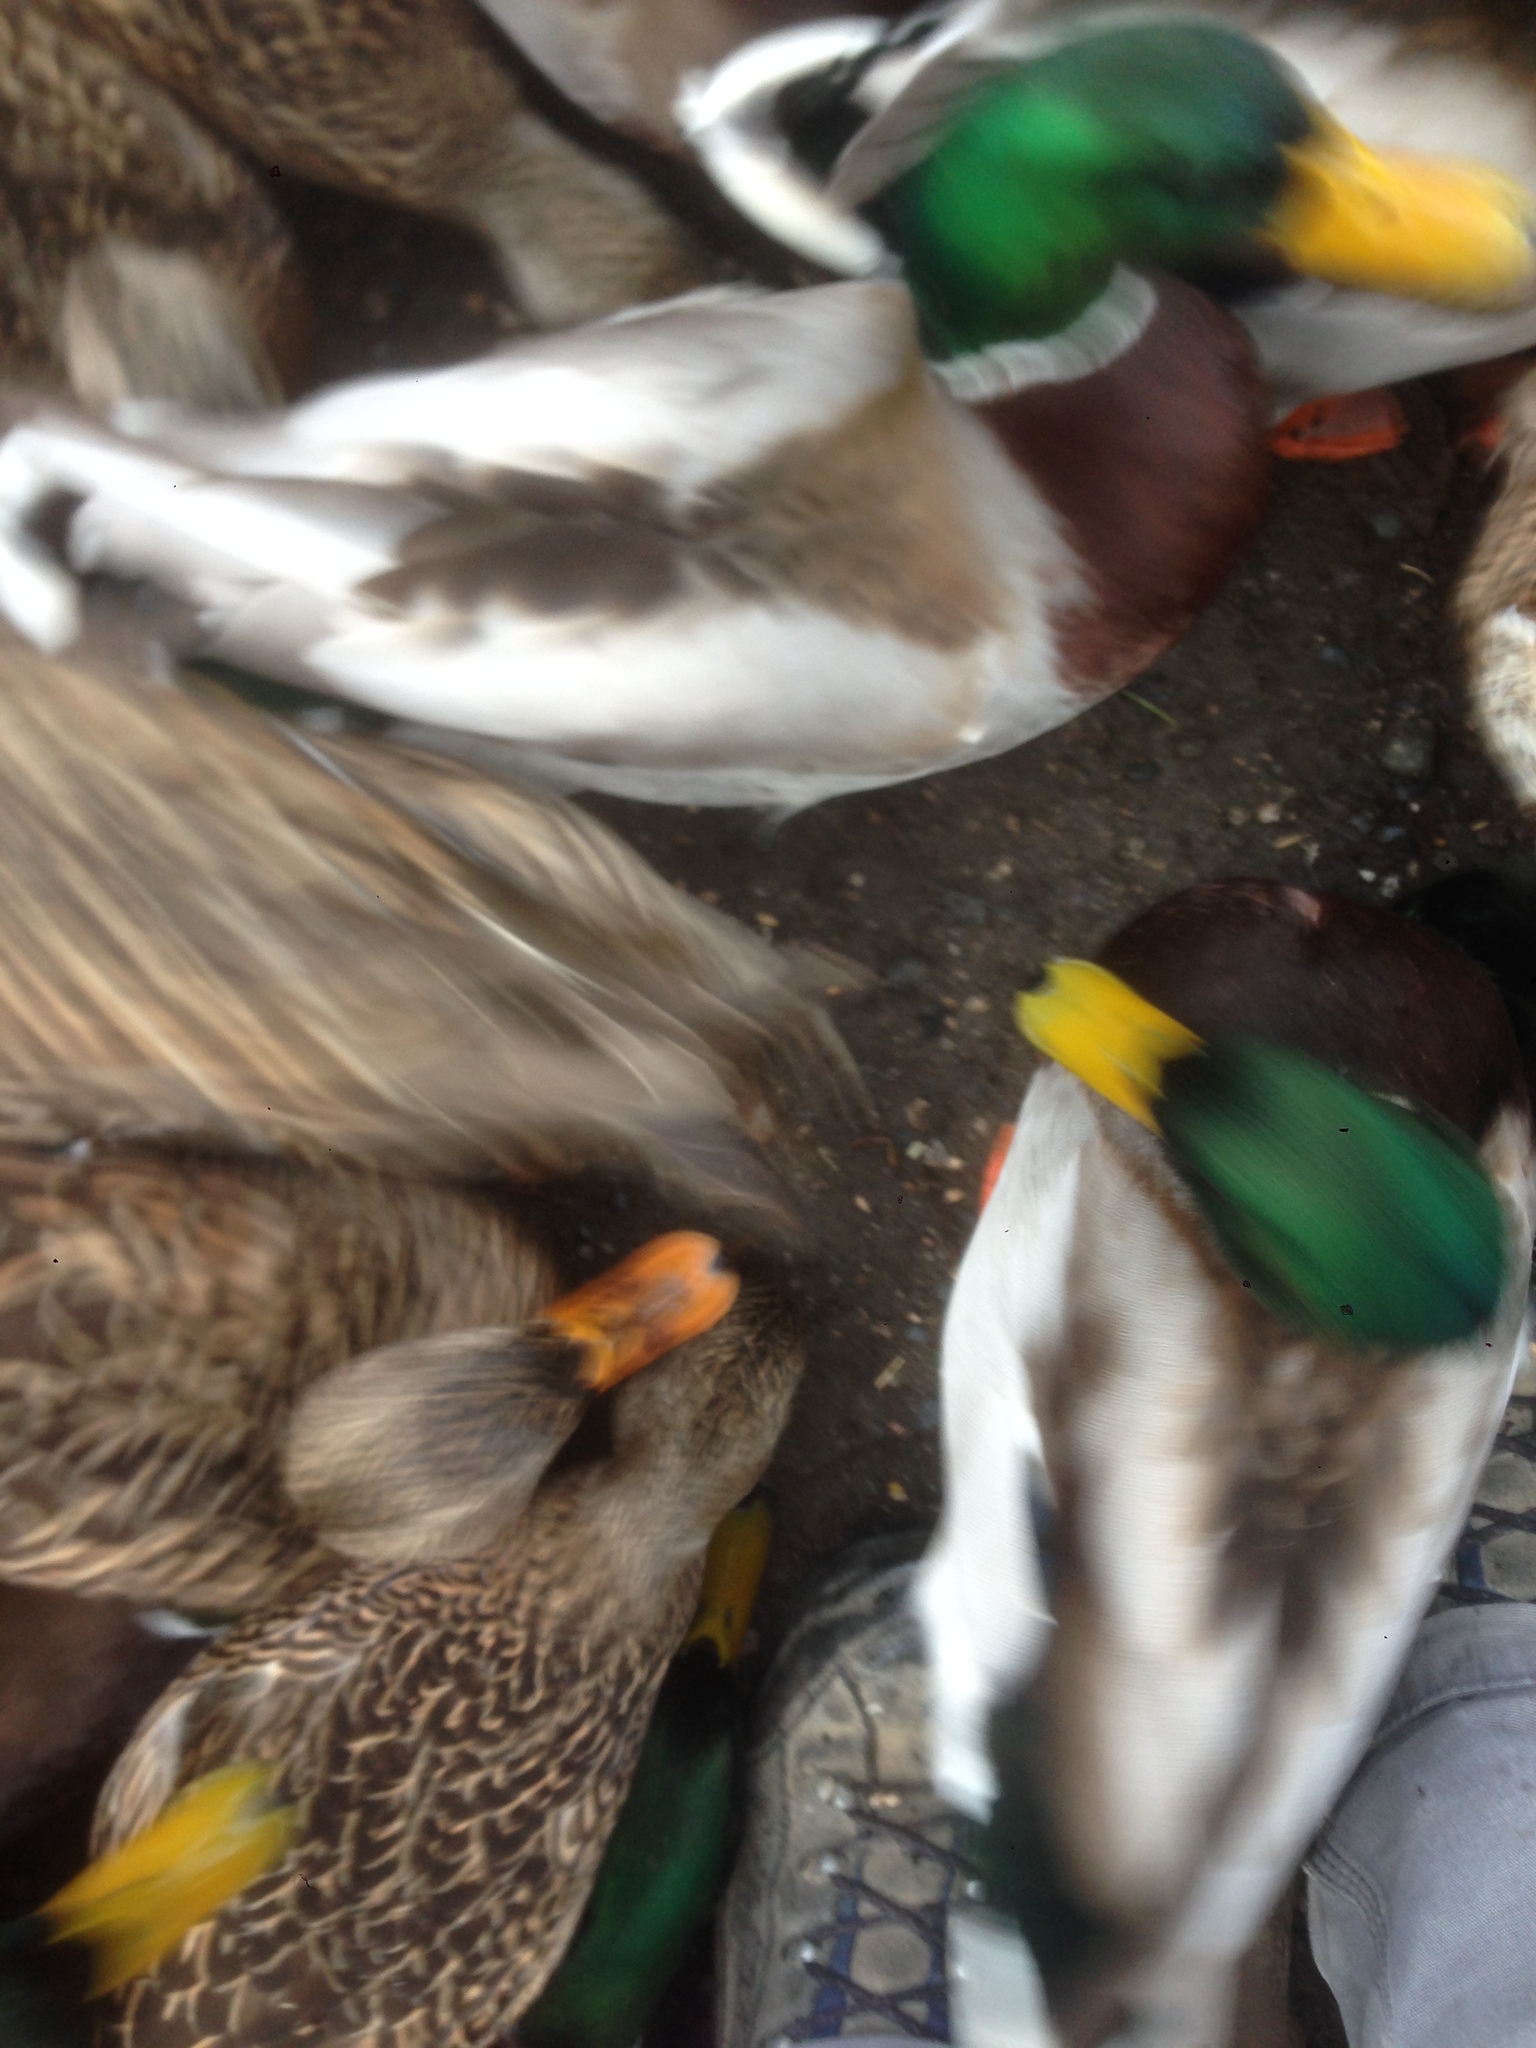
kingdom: Animalia
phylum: Chordata
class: Aves
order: Anseriformes
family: Anatidae
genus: Anas
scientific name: Anas platyrhynchos
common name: Mallard
